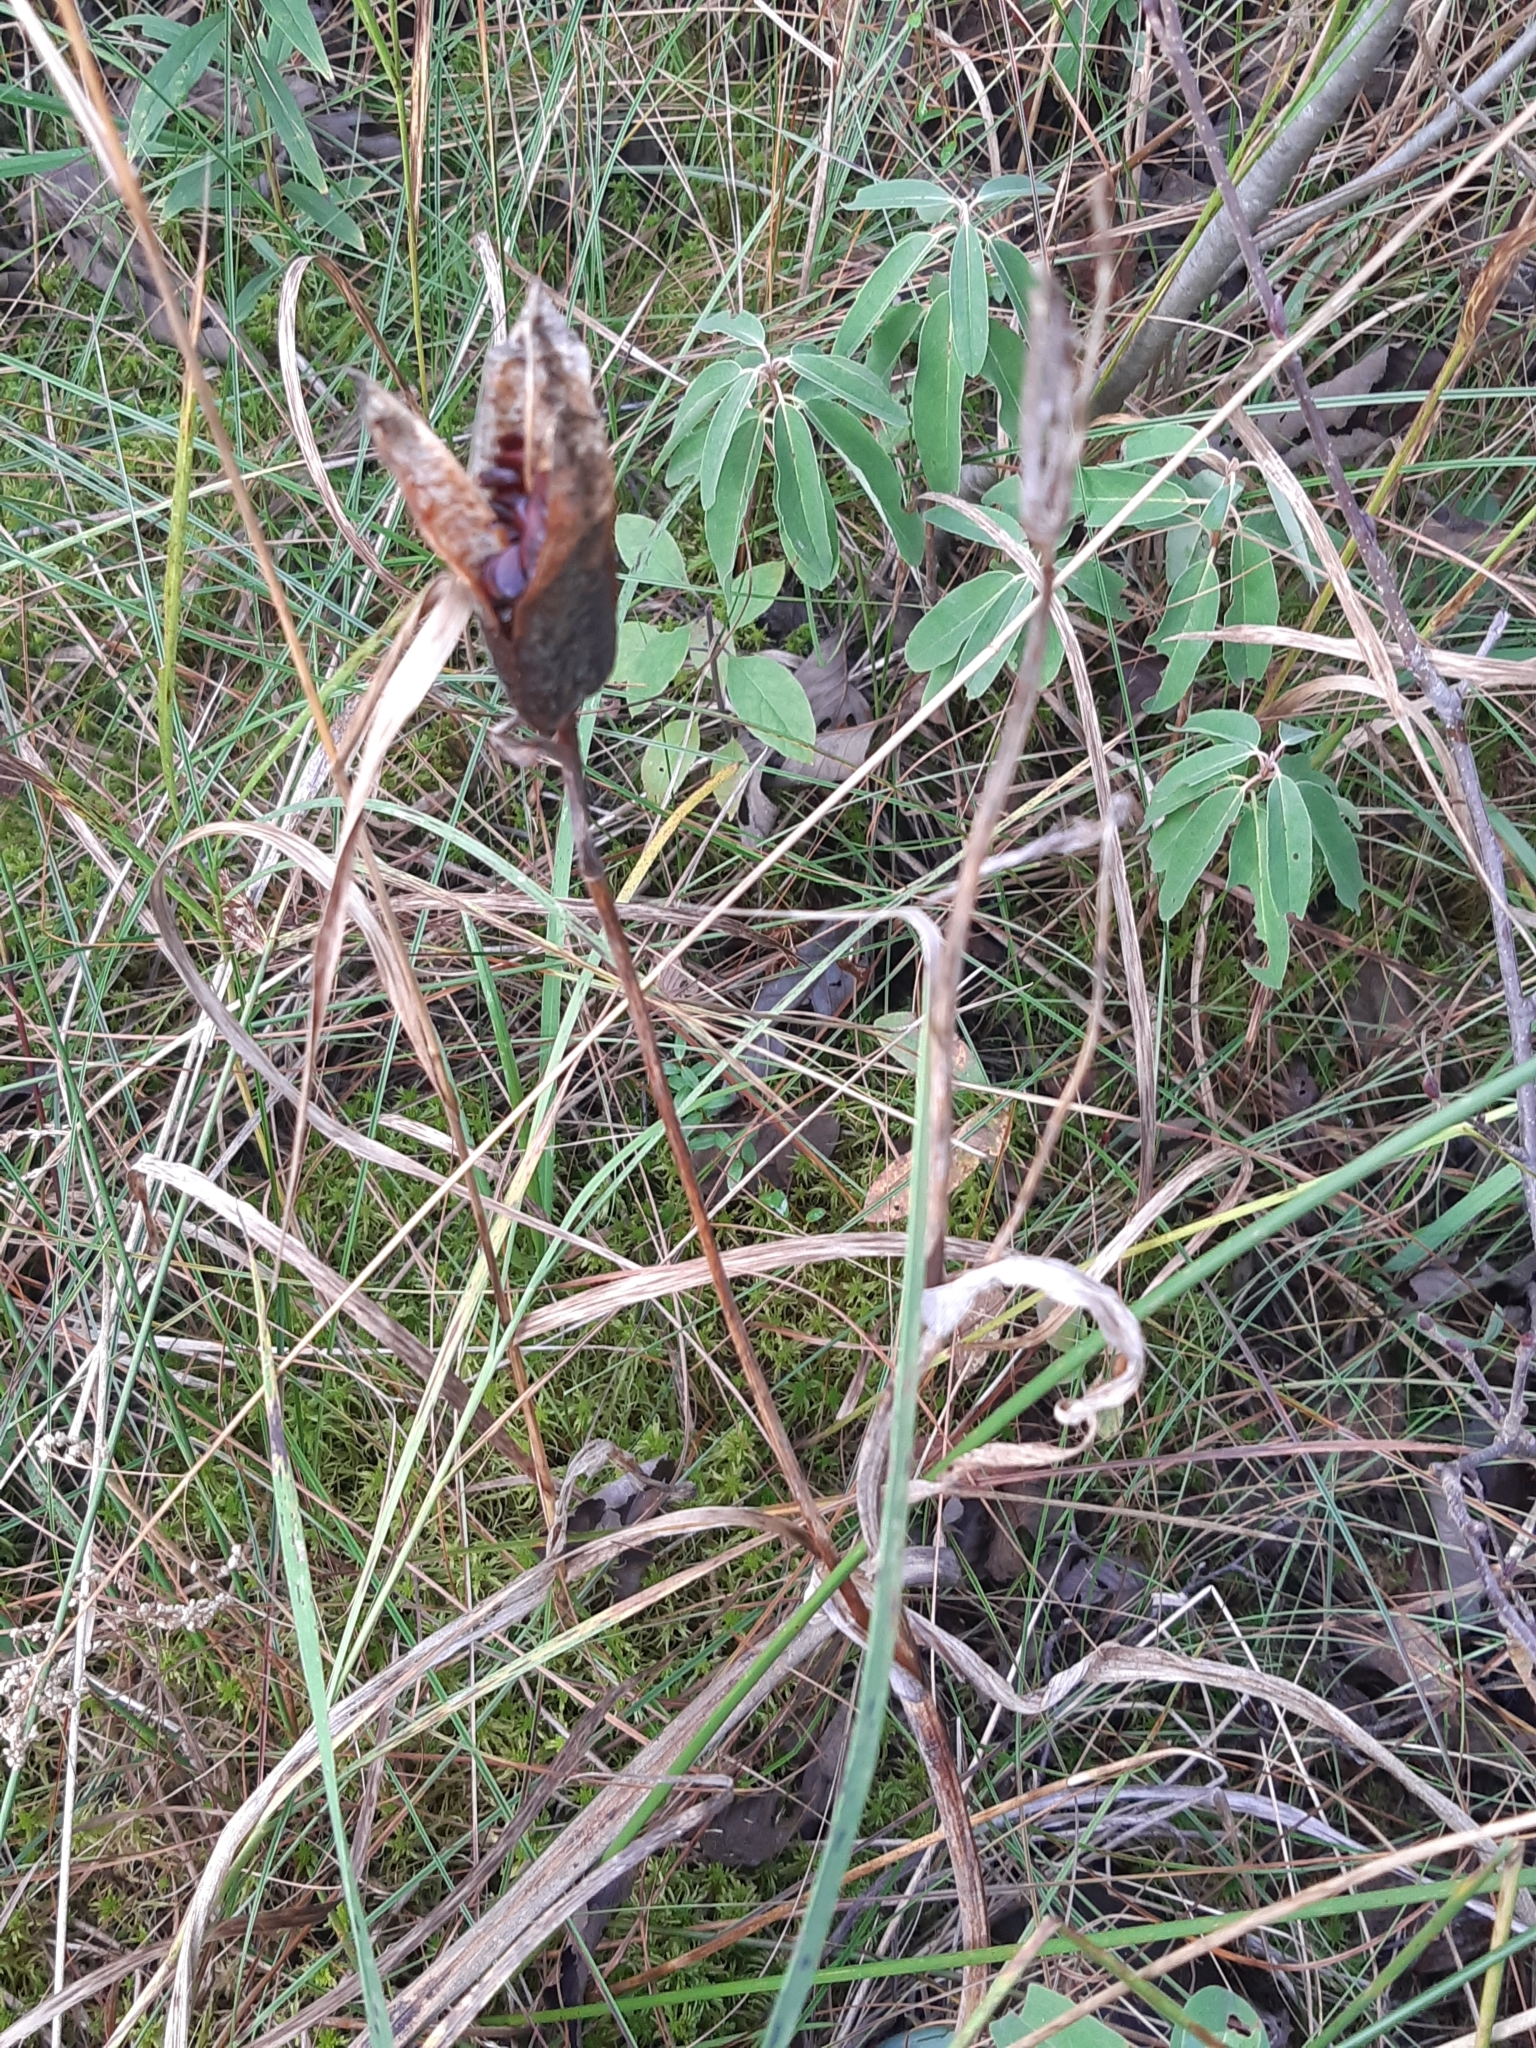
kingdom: Plantae
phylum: Tracheophyta
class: Liliopsida
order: Asparagales
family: Iridaceae
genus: Iris
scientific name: Iris versicolor
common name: Purple iris
